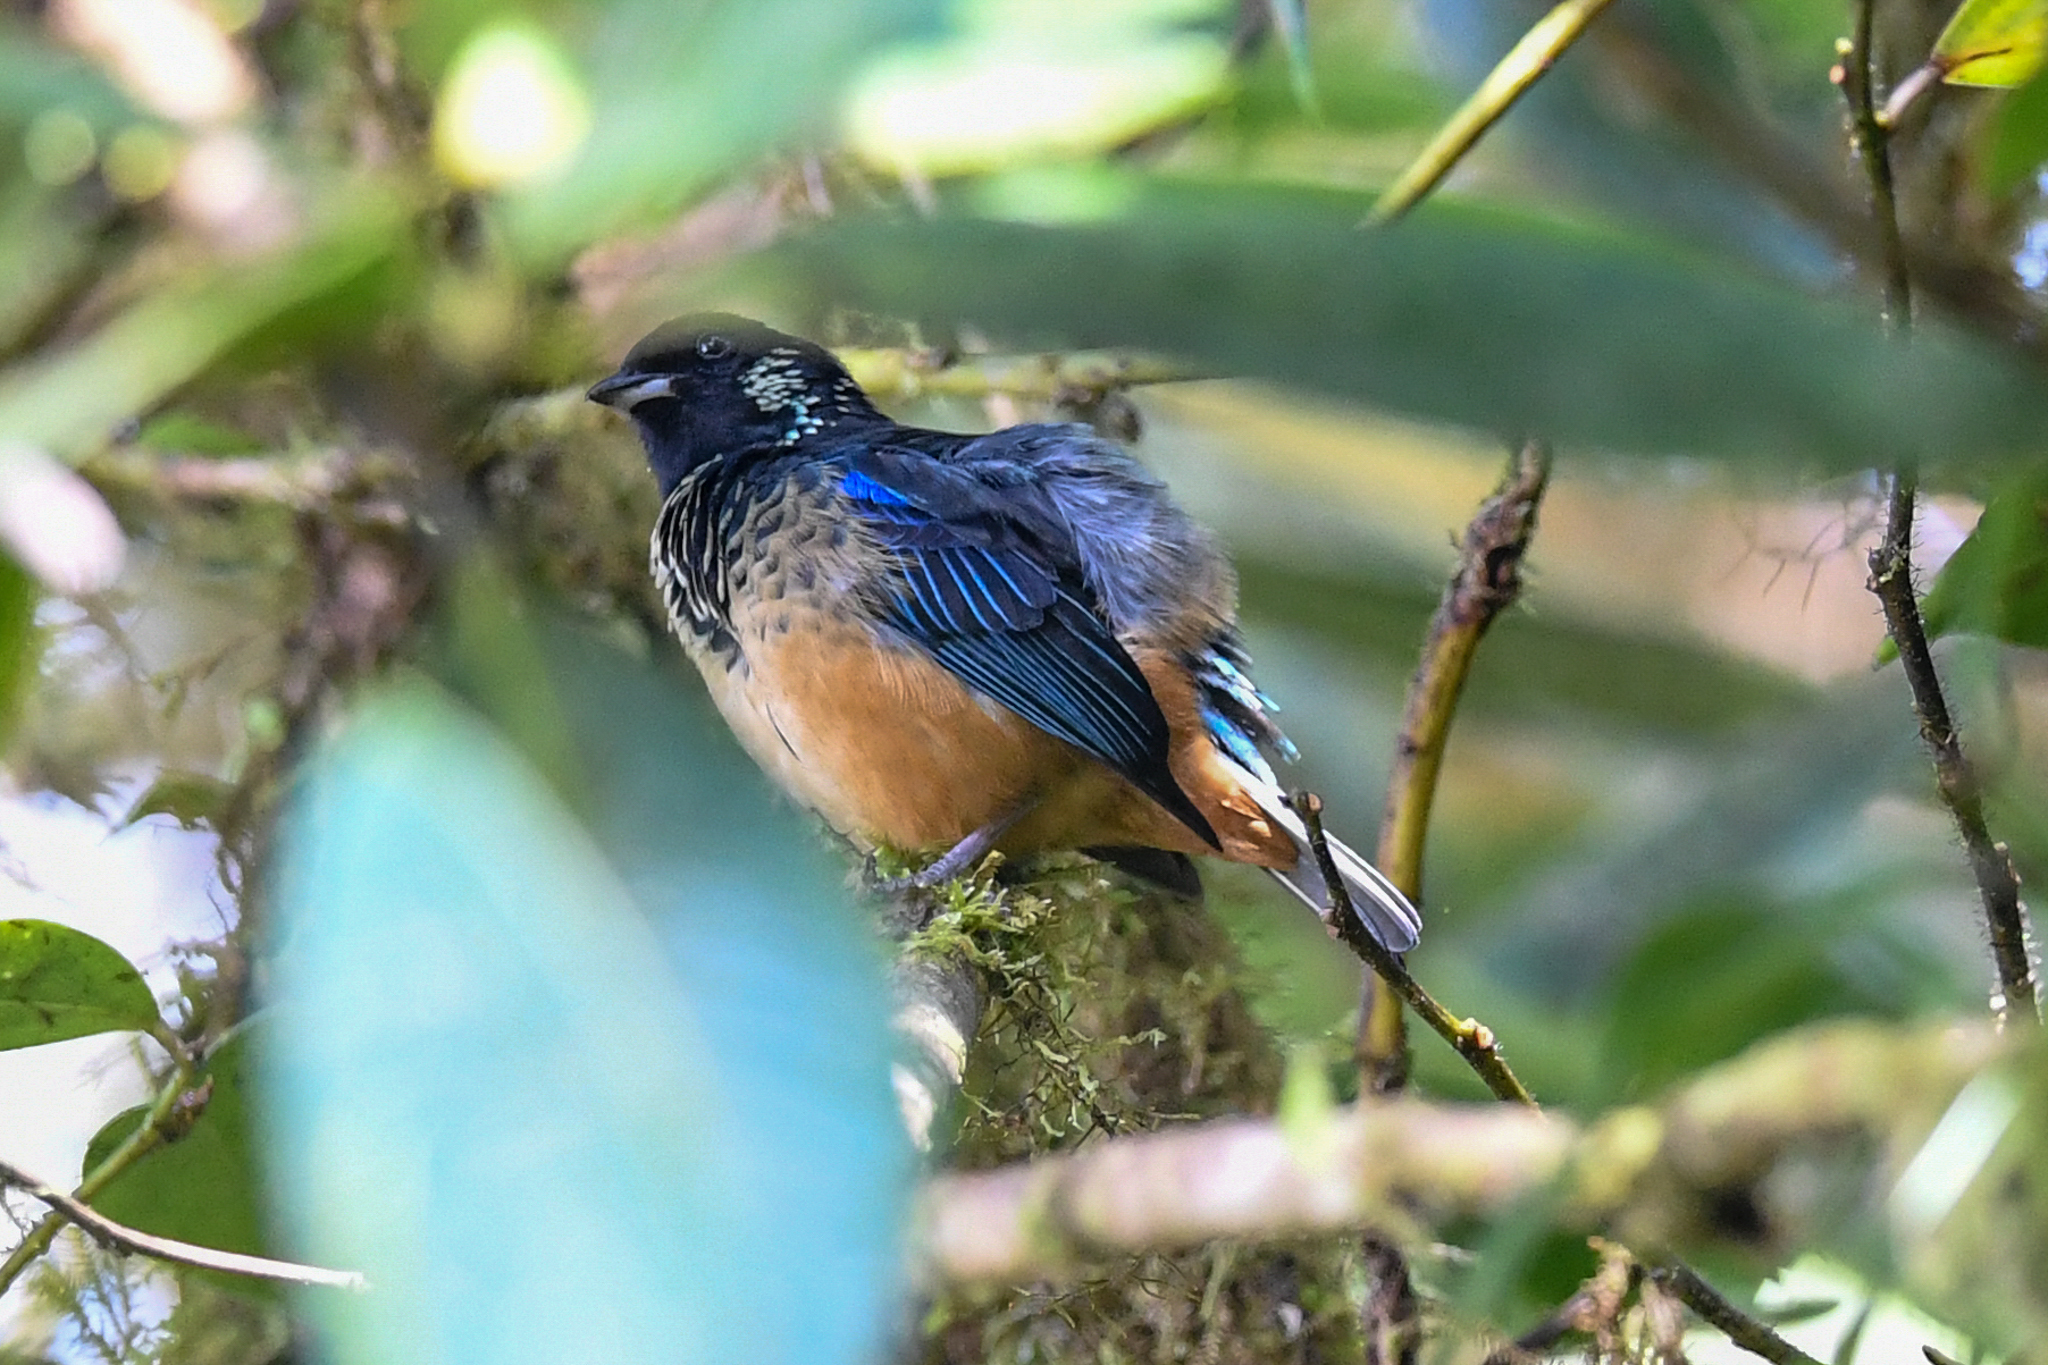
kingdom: Animalia
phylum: Chordata
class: Aves
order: Passeriformes
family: Thraupidae
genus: Tangara
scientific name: Tangara dowii
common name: Spangle-cheeked tanager
